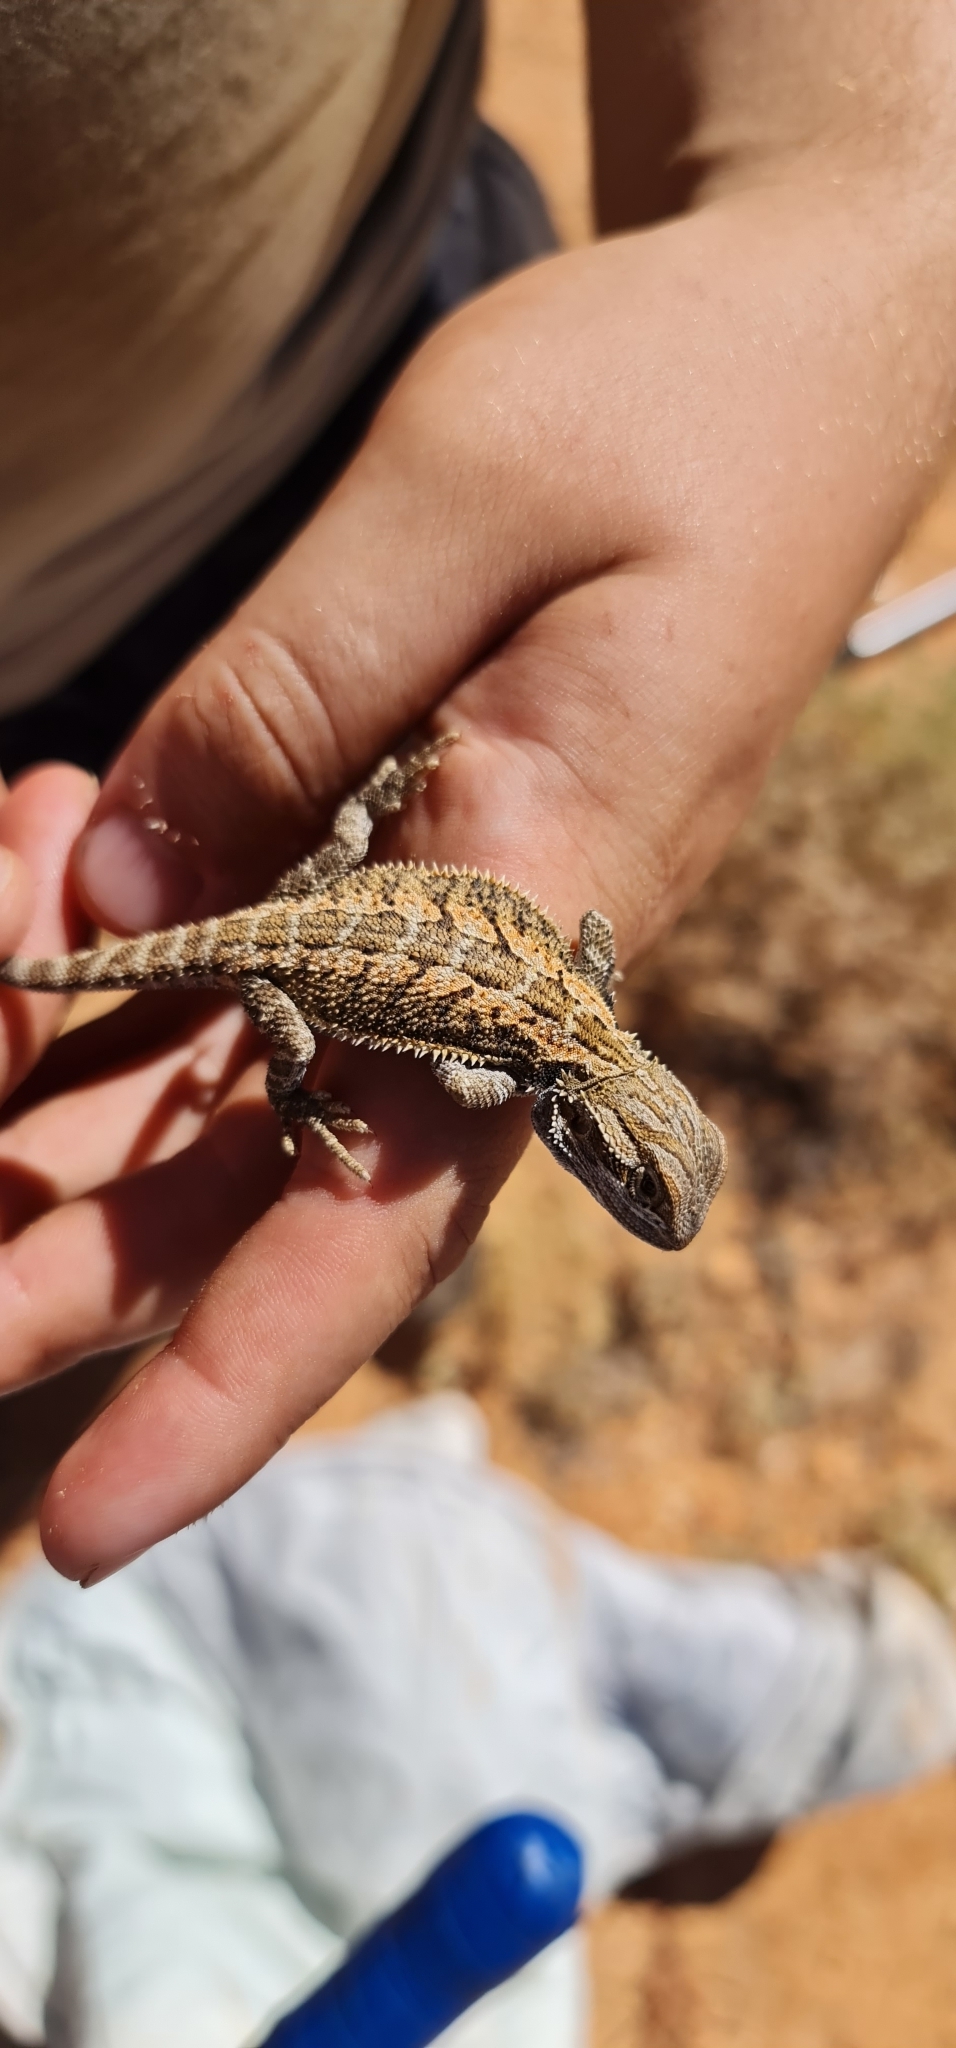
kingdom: Animalia
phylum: Chordata
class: Squamata
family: Agamidae
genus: Pogona
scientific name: Pogona vitticeps
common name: Central bearded dragon
